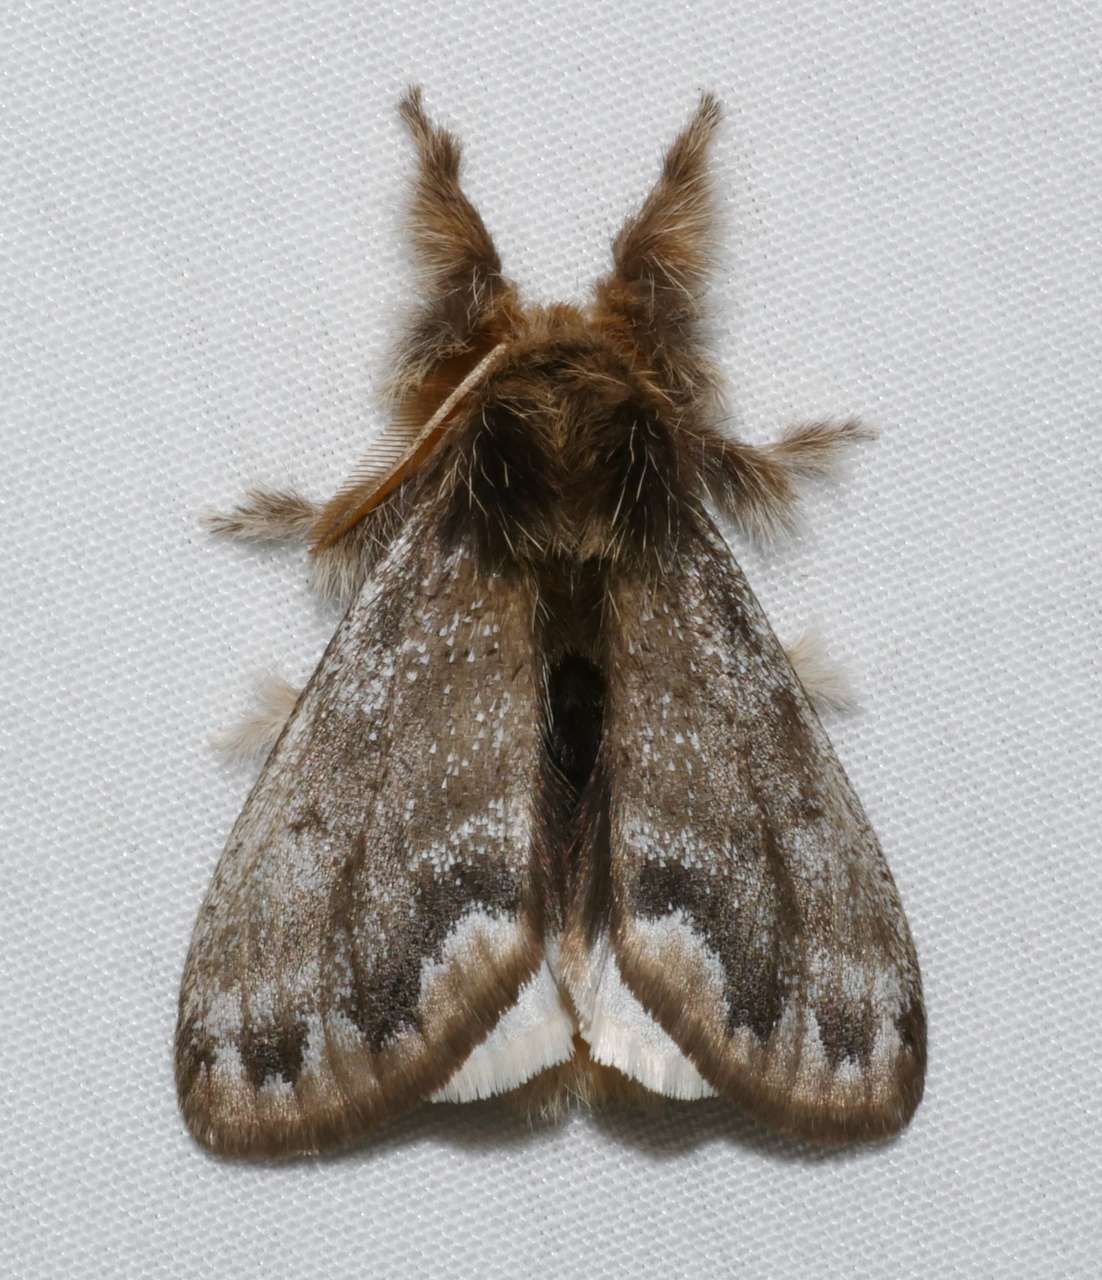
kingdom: Animalia
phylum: Arthropoda
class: Insecta
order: Lepidoptera
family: Erebidae
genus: Euproctis
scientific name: Euproctis
